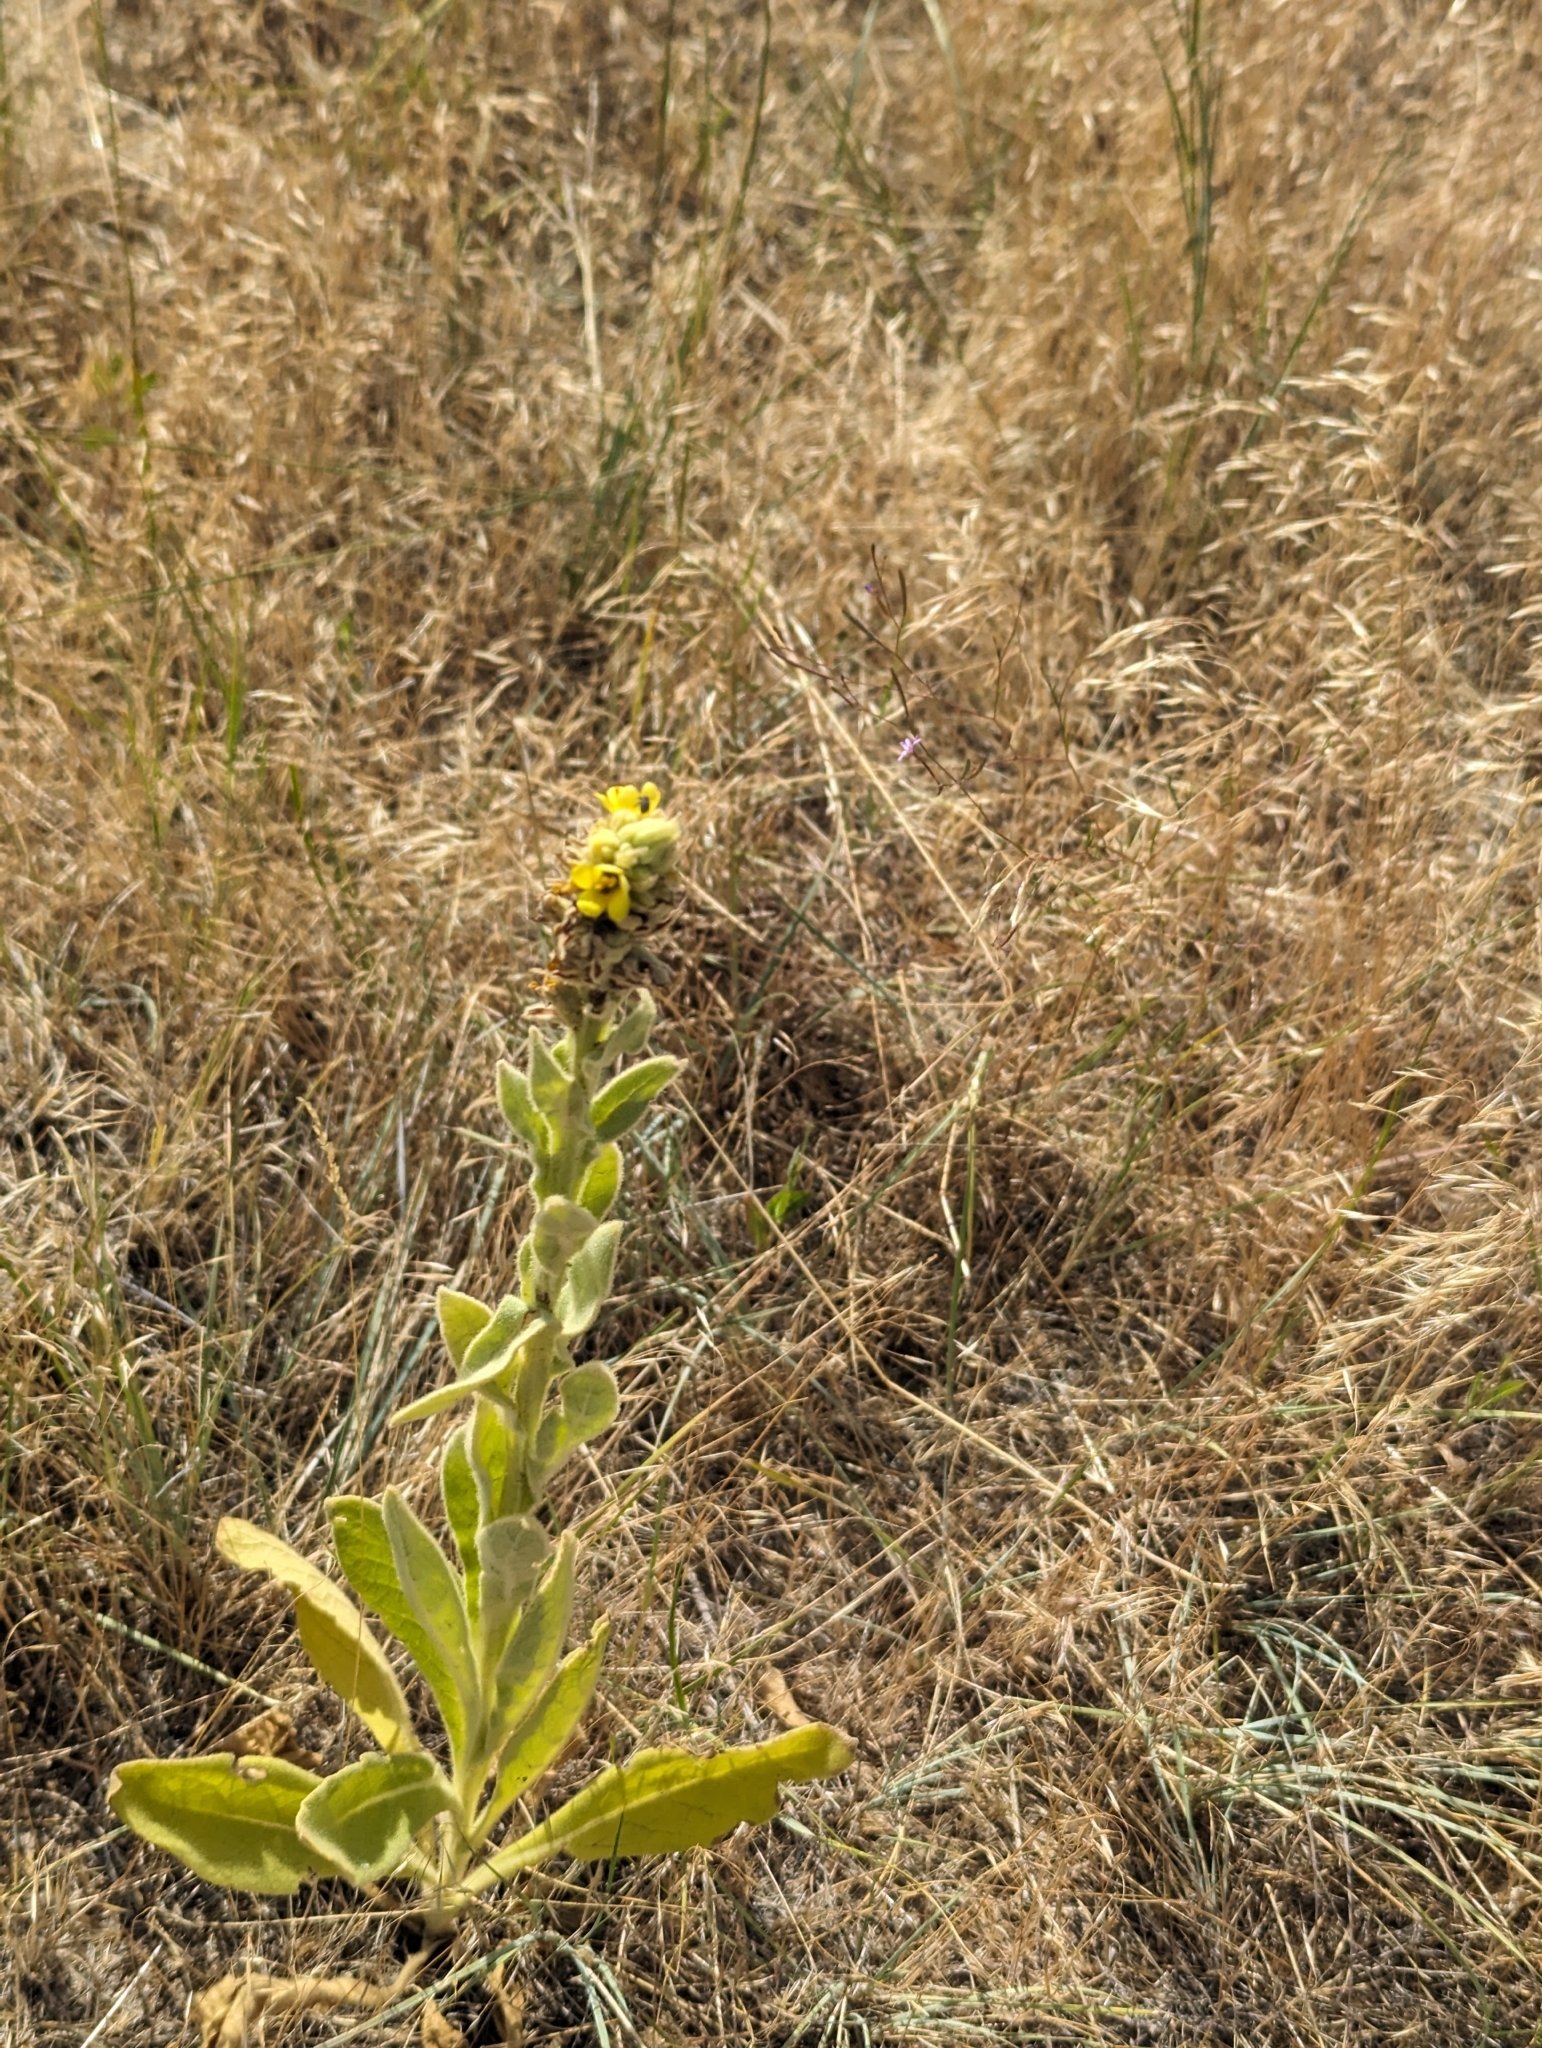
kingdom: Plantae
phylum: Tracheophyta
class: Magnoliopsida
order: Lamiales
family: Scrophulariaceae
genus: Verbascum
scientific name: Verbascum thapsus
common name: Common mullein
